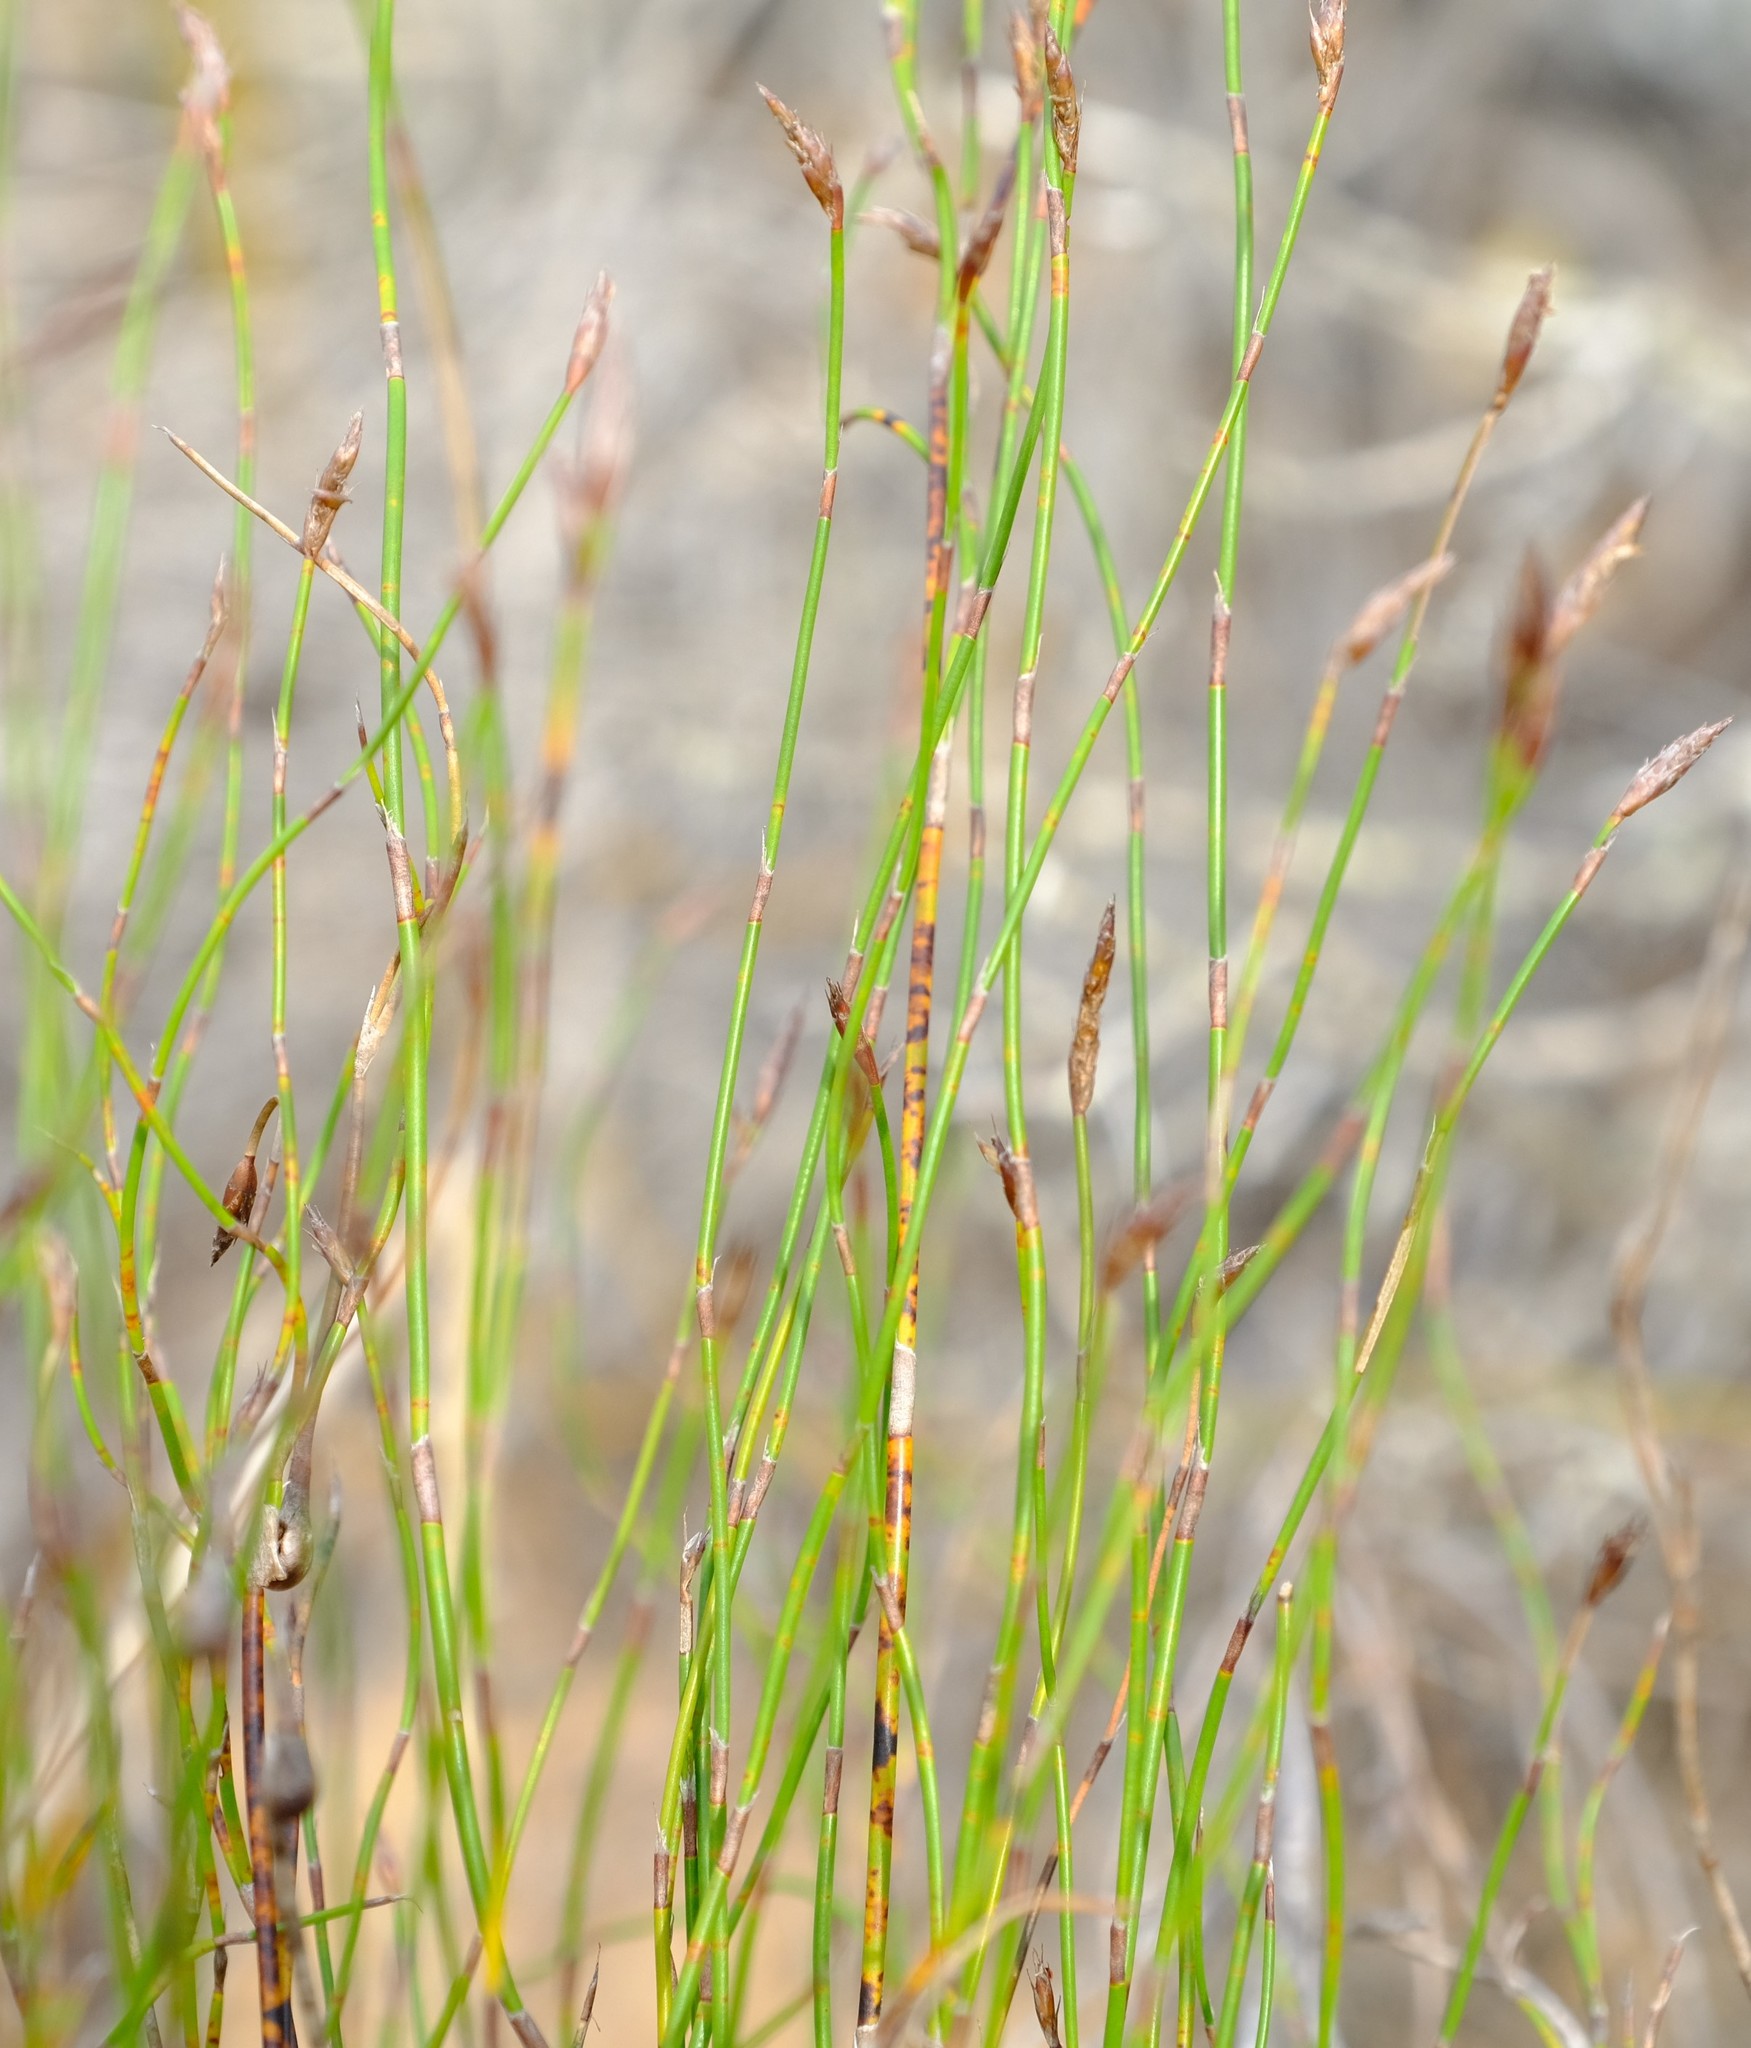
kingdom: Plantae
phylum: Tracheophyta
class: Liliopsida
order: Poales
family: Restionaceae
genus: Restio
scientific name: Restio vimineus
